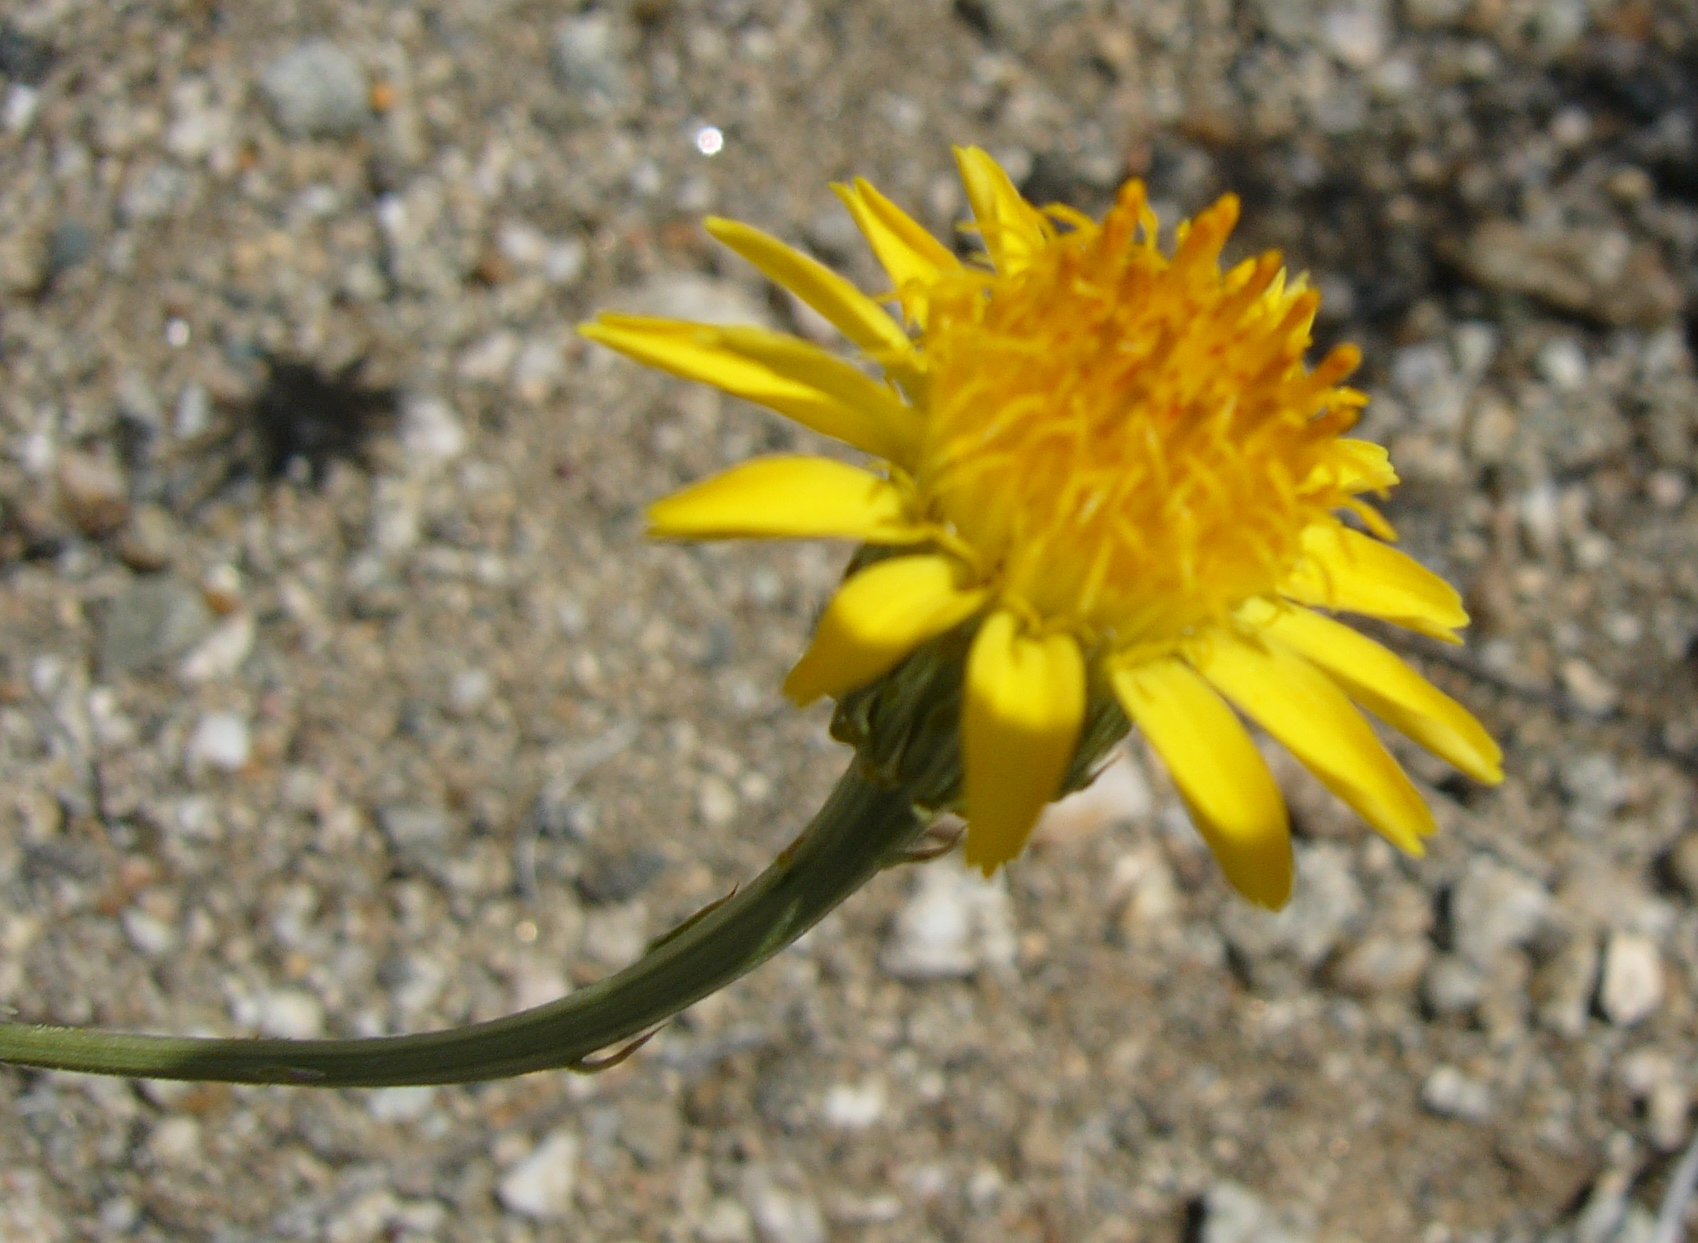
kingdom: Plantae
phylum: Tracheophyta
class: Magnoliopsida
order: Asterales
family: Asteraceae
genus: Adenophyllum
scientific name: Adenophyllum cooperi
